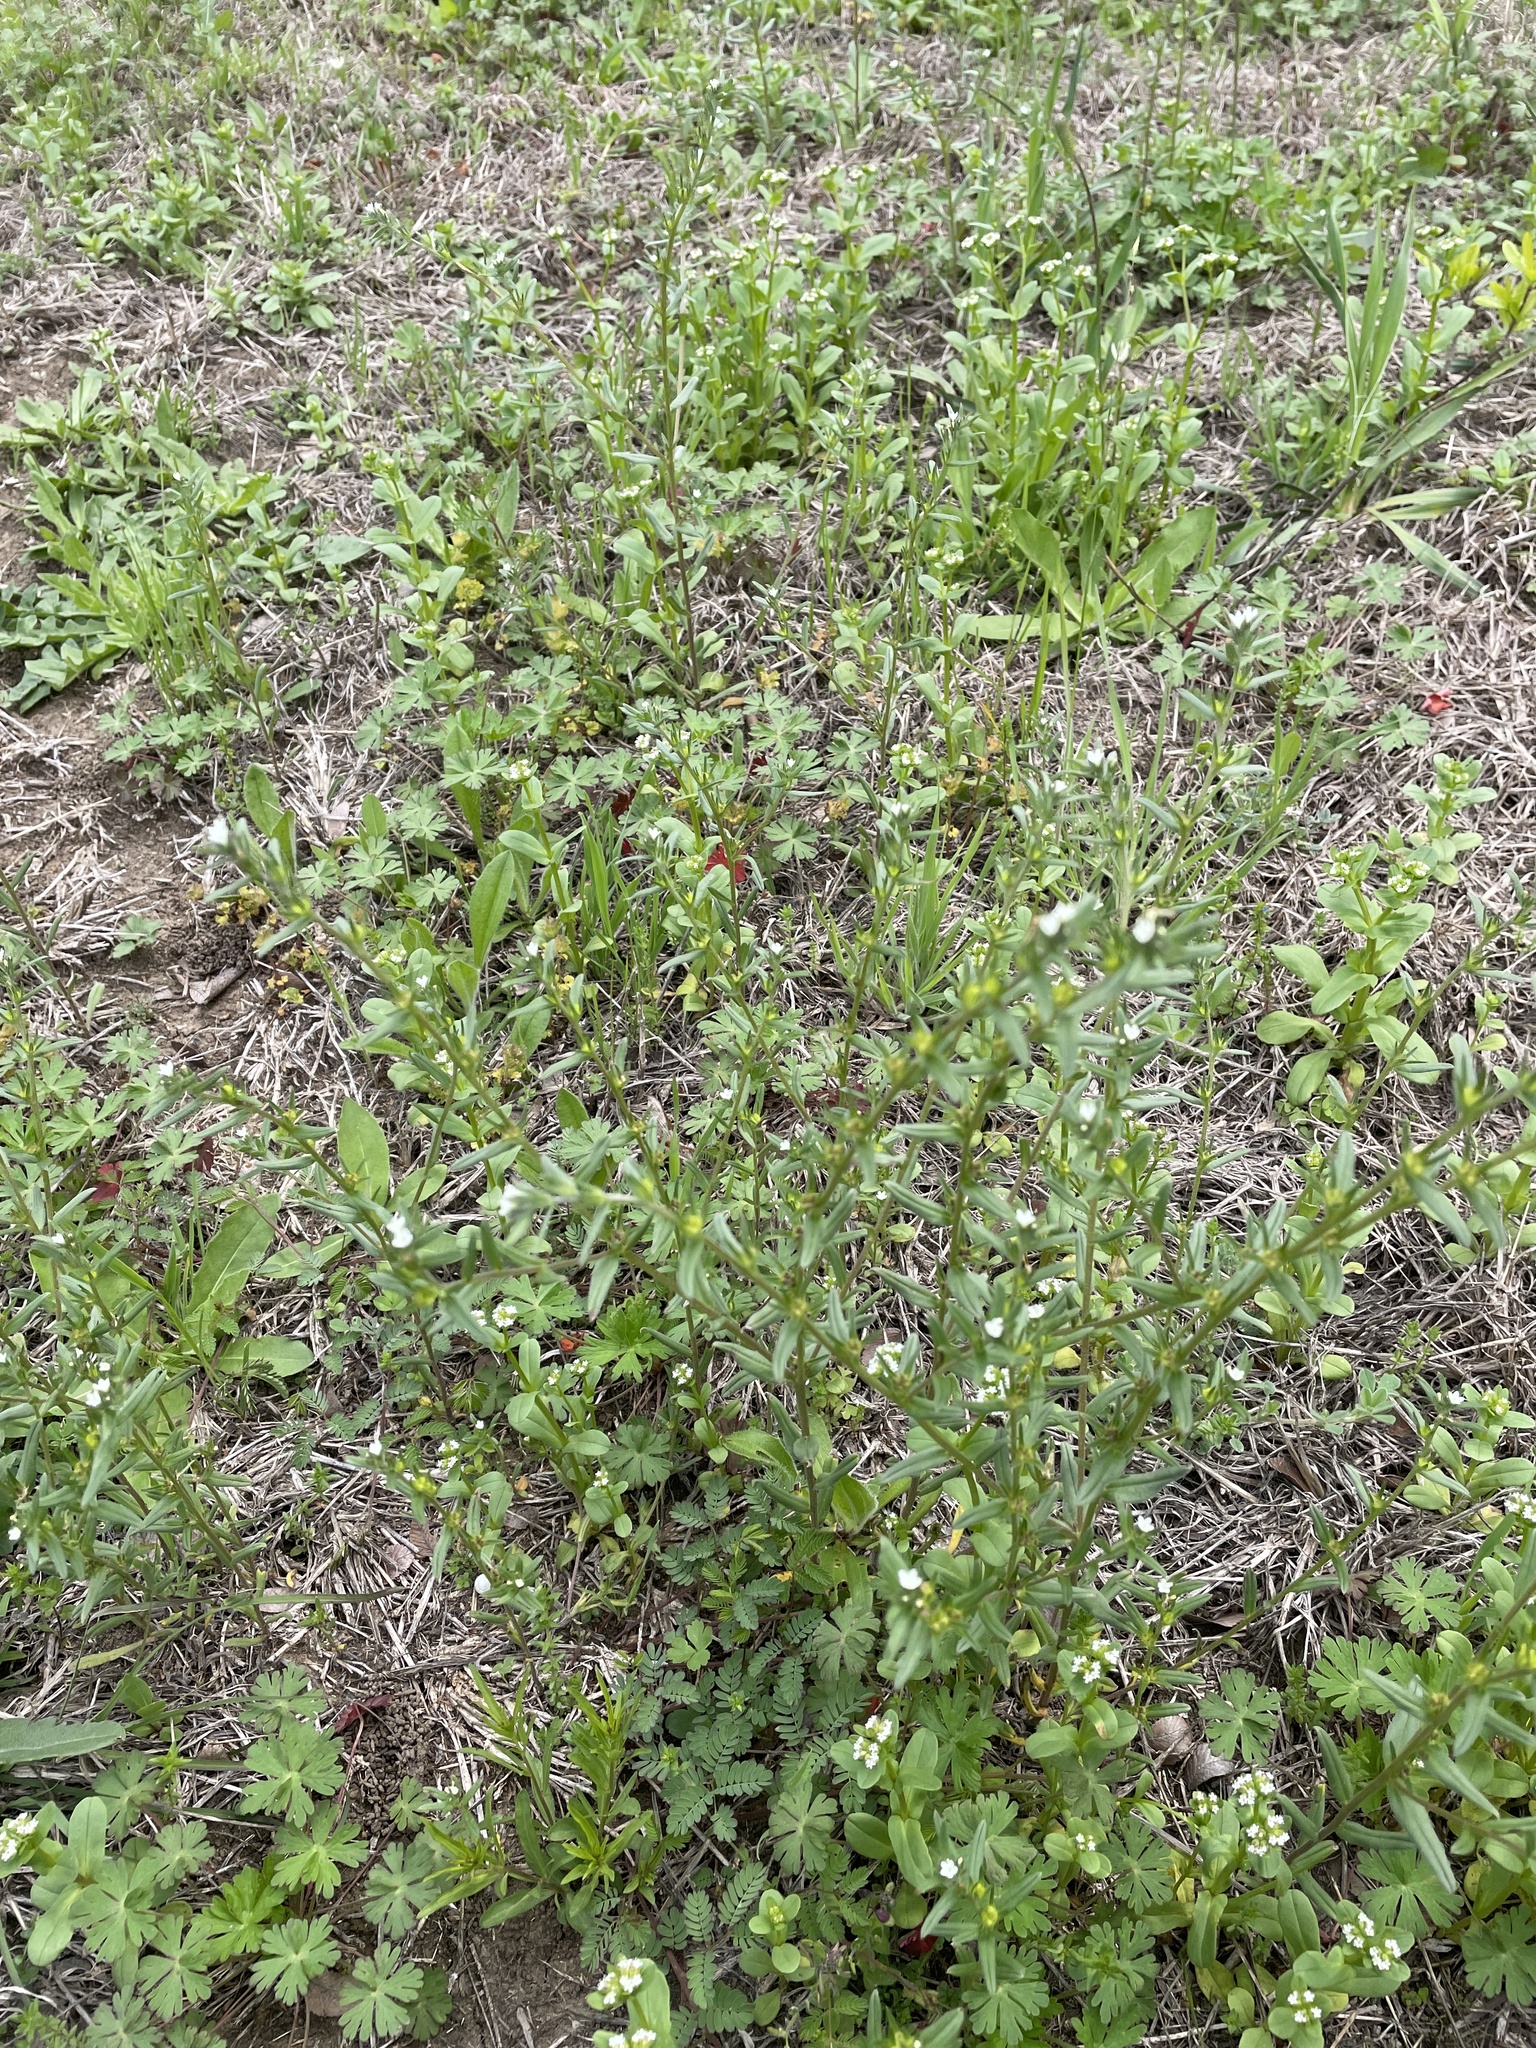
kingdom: Plantae
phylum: Tracheophyta
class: Magnoliopsida
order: Boraginales
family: Boraginaceae
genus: Buglossoides
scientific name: Buglossoides arvensis
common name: Corn gromwell
